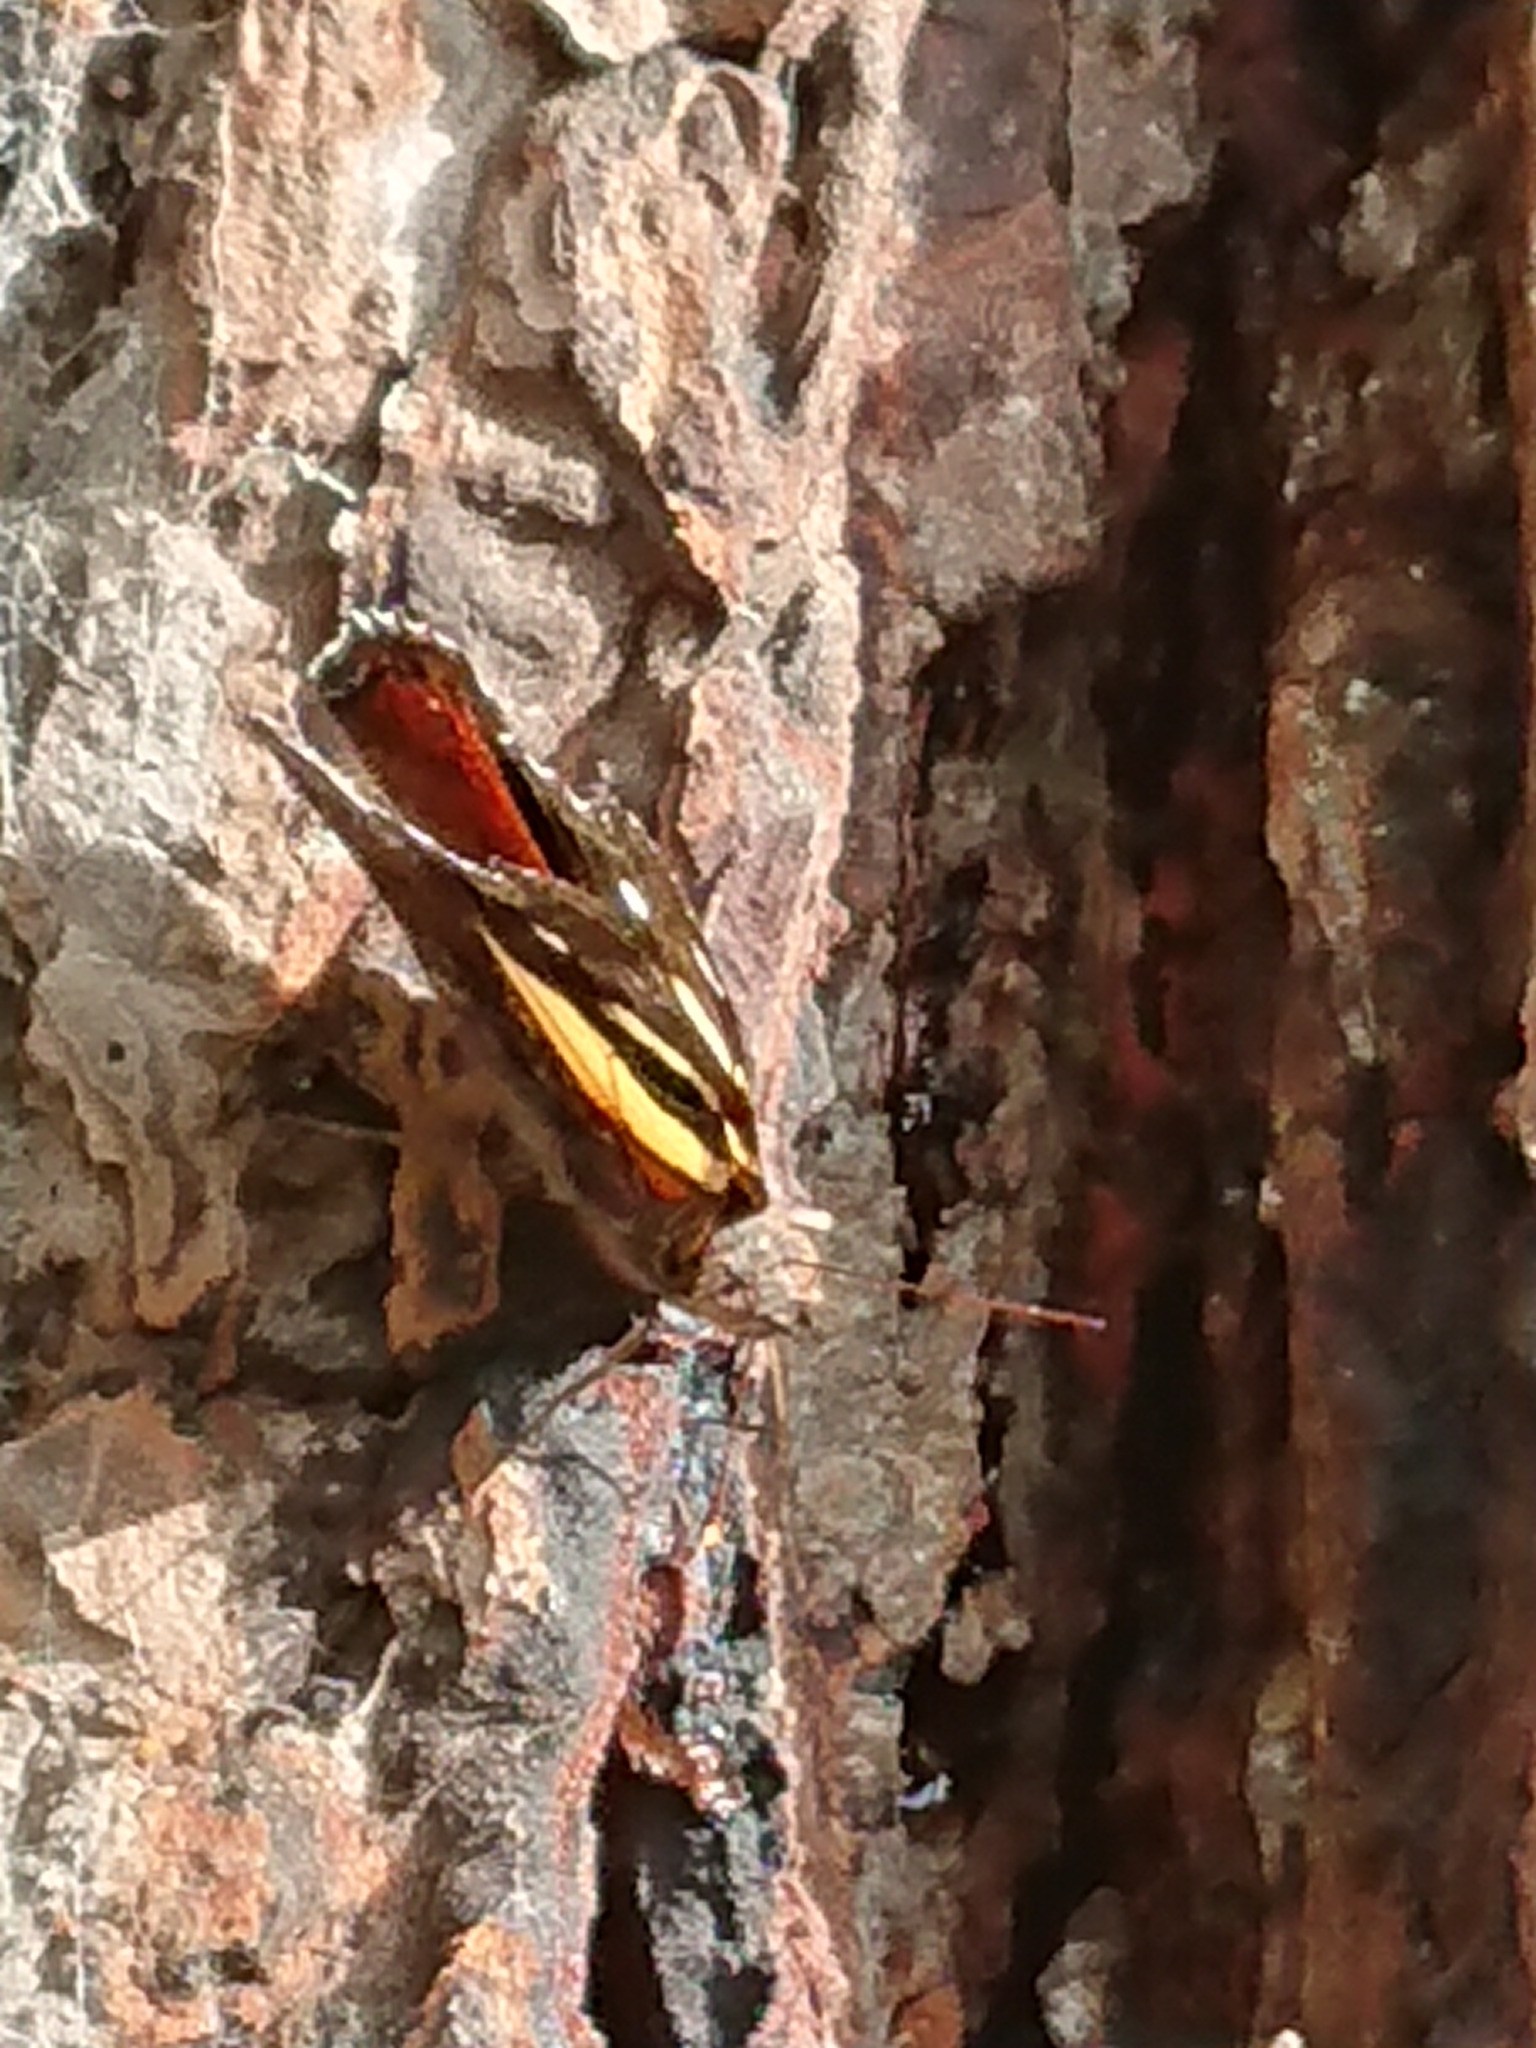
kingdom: Animalia
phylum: Arthropoda
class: Insecta
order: Lepidoptera
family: Nymphalidae
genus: Vanessa
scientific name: Vanessa itea
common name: Yellow admiral
